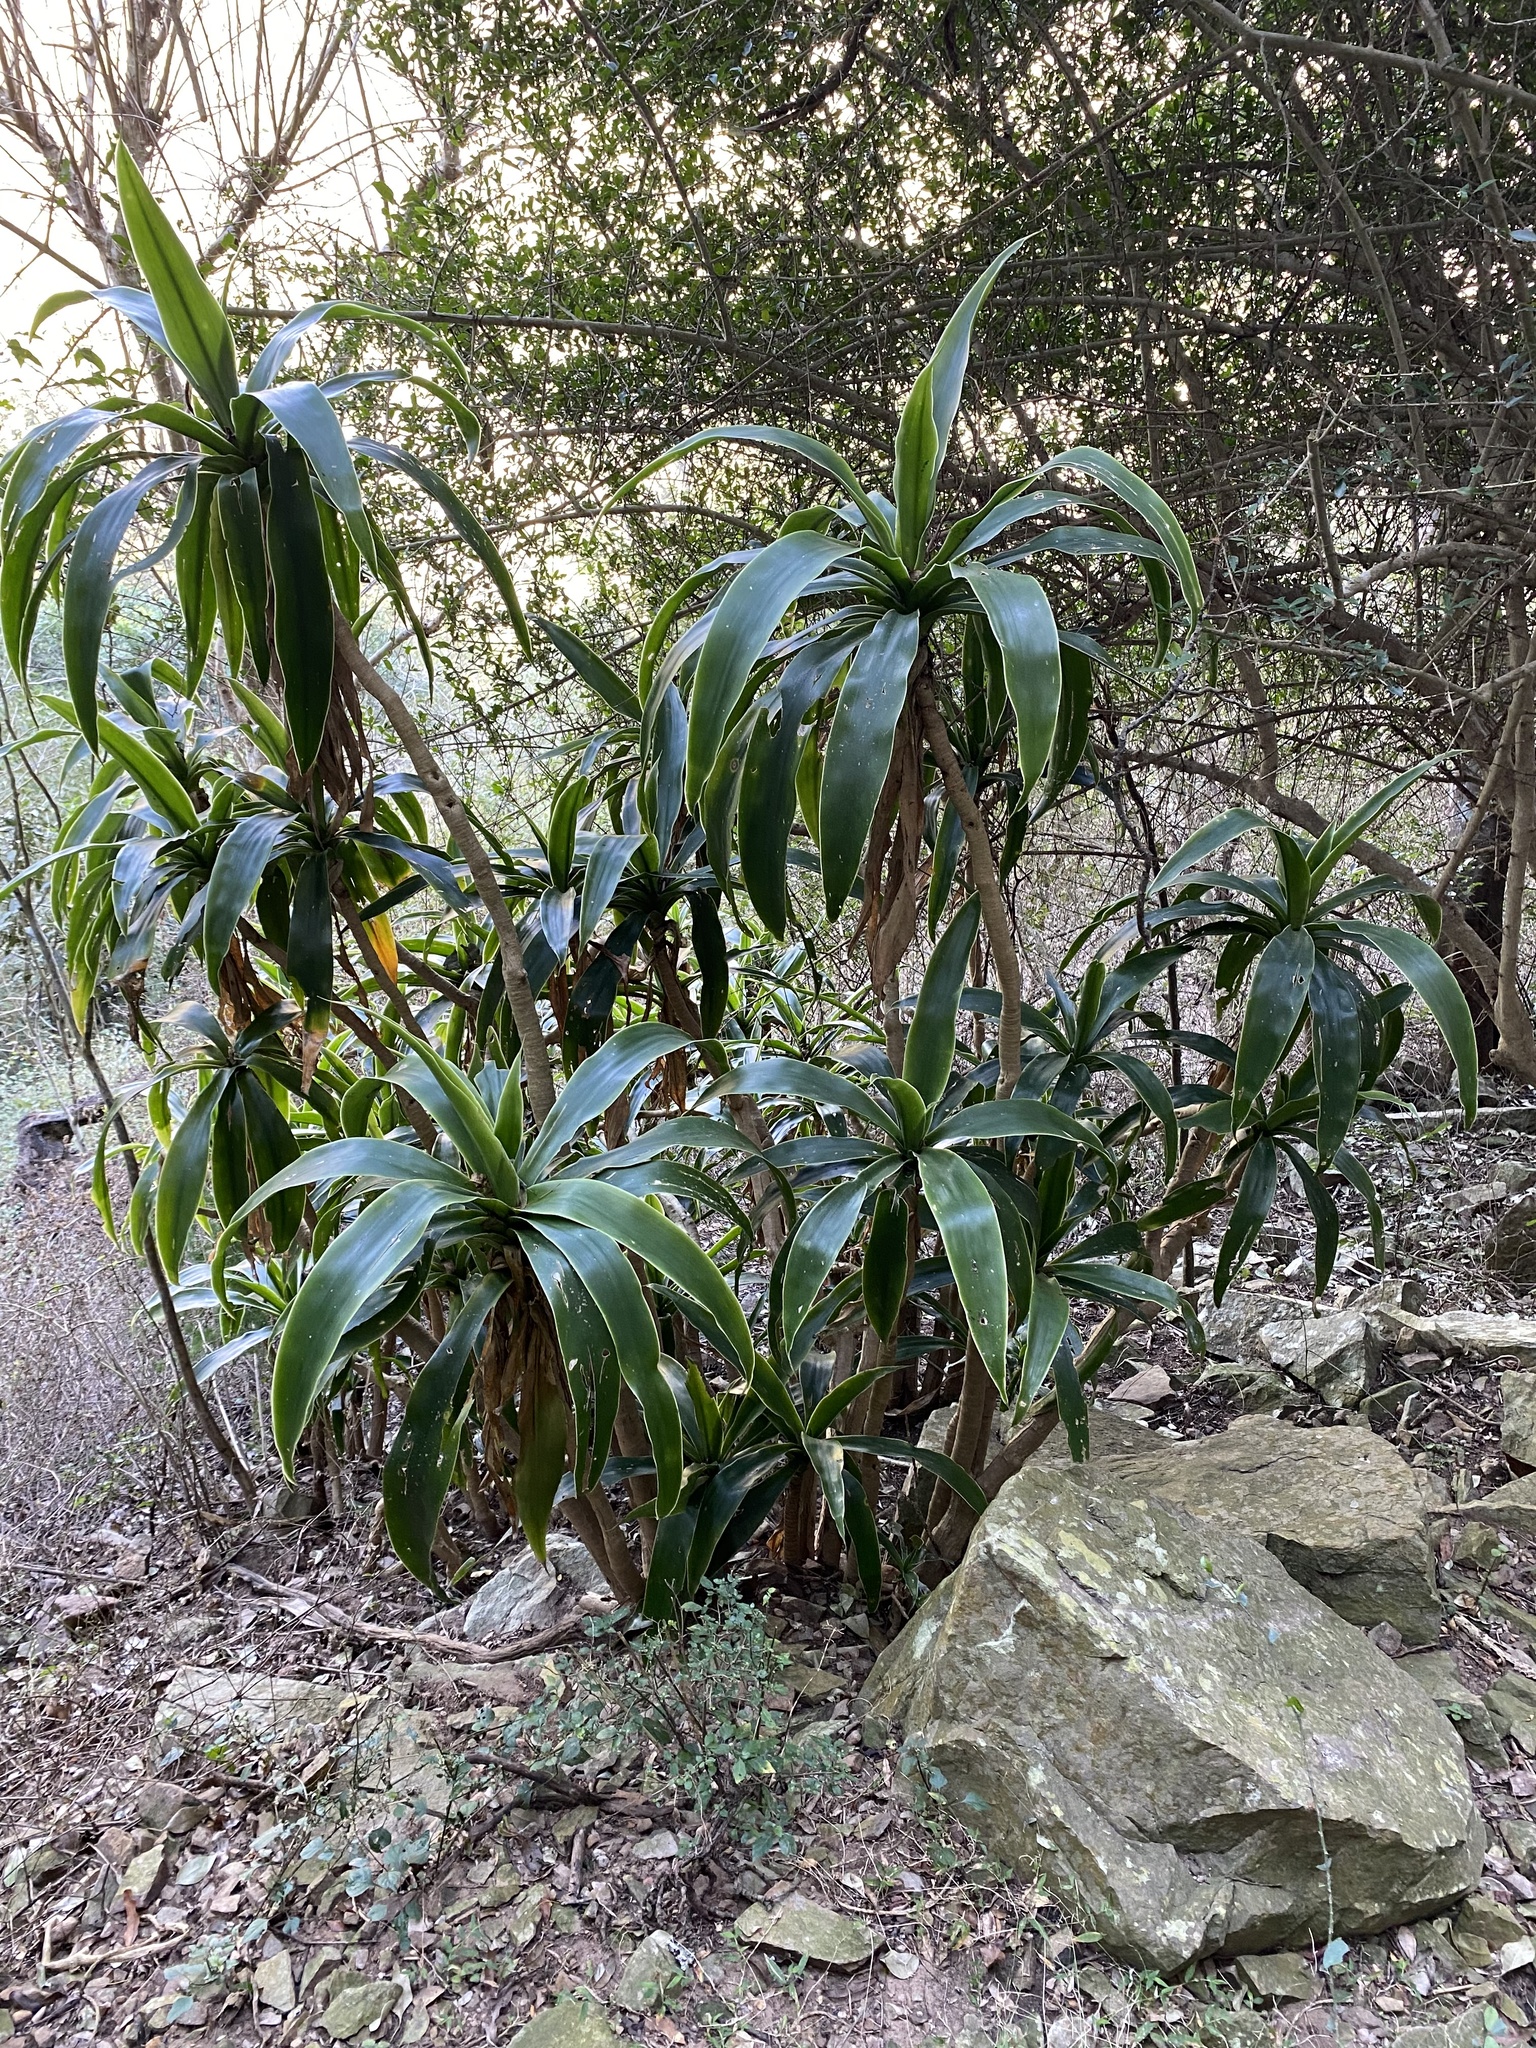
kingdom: Plantae
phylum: Tracheophyta
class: Liliopsida
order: Asparagales
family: Asparagaceae
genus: Dracaena
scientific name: Dracaena aletriformis
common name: Large-leaved dragon tree
